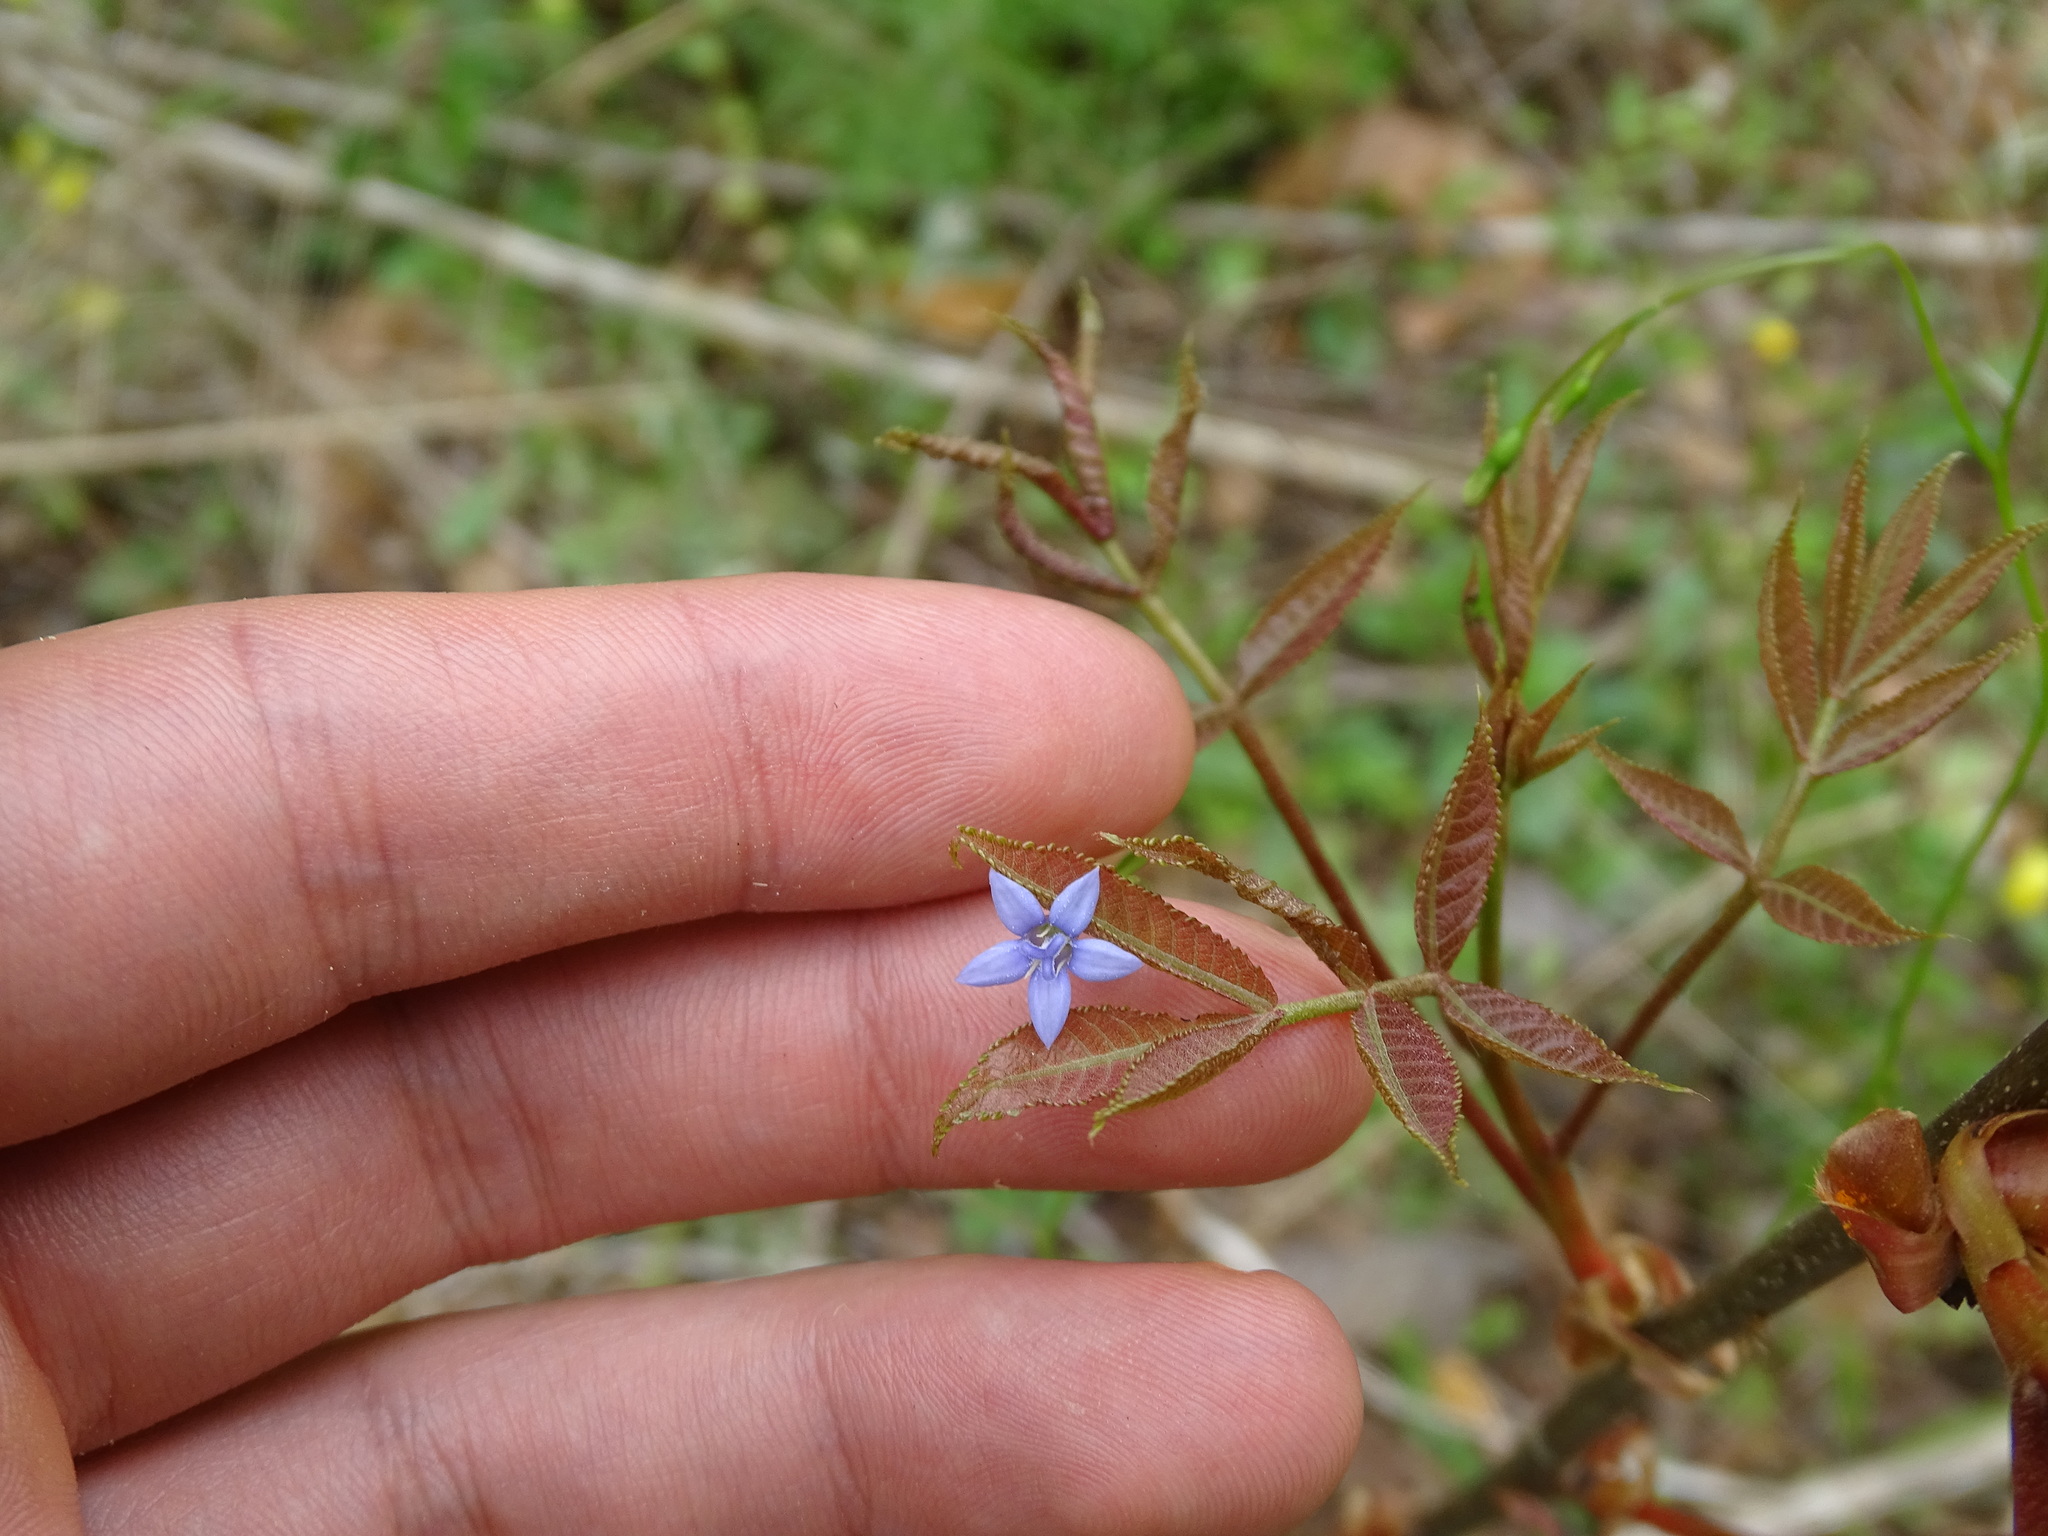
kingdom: Plantae
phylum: Tracheophyta
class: Magnoliopsida
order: Asterales
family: Campanulaceae
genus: Wahlenbergia
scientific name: Wahlenbergia marginata
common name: Southern rockbell
